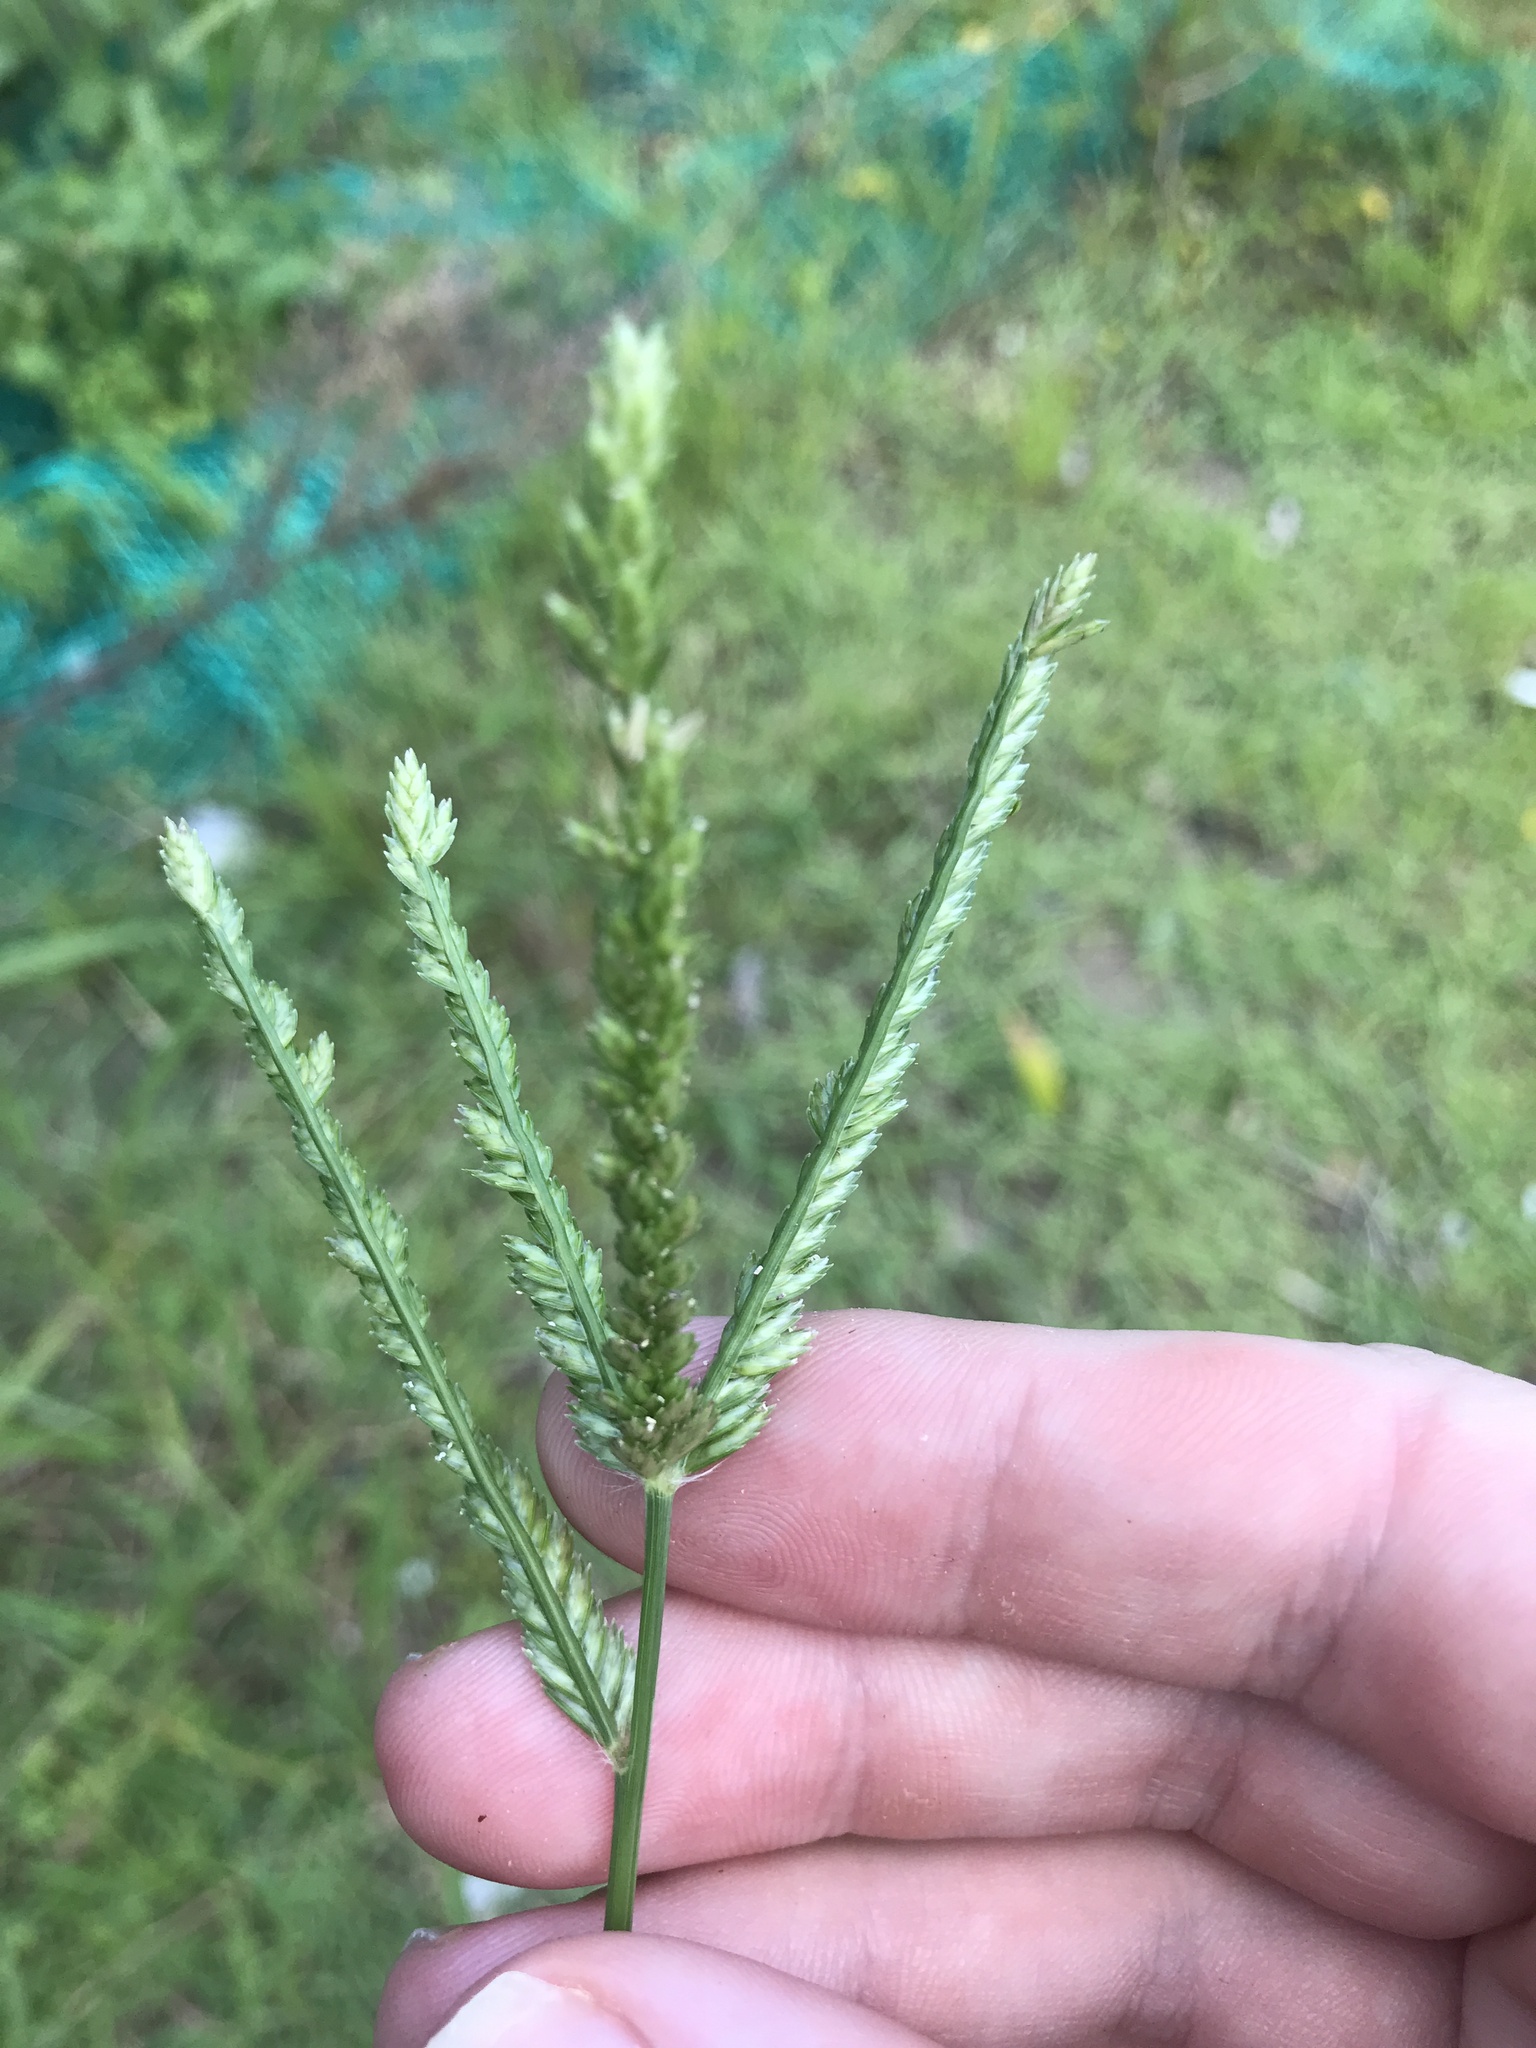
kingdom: Plantae
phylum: Tracheophyta
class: Liliopsida
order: Poales
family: Poaceae
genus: Eleusine
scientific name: Eleusine indica
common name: Yard-grass
